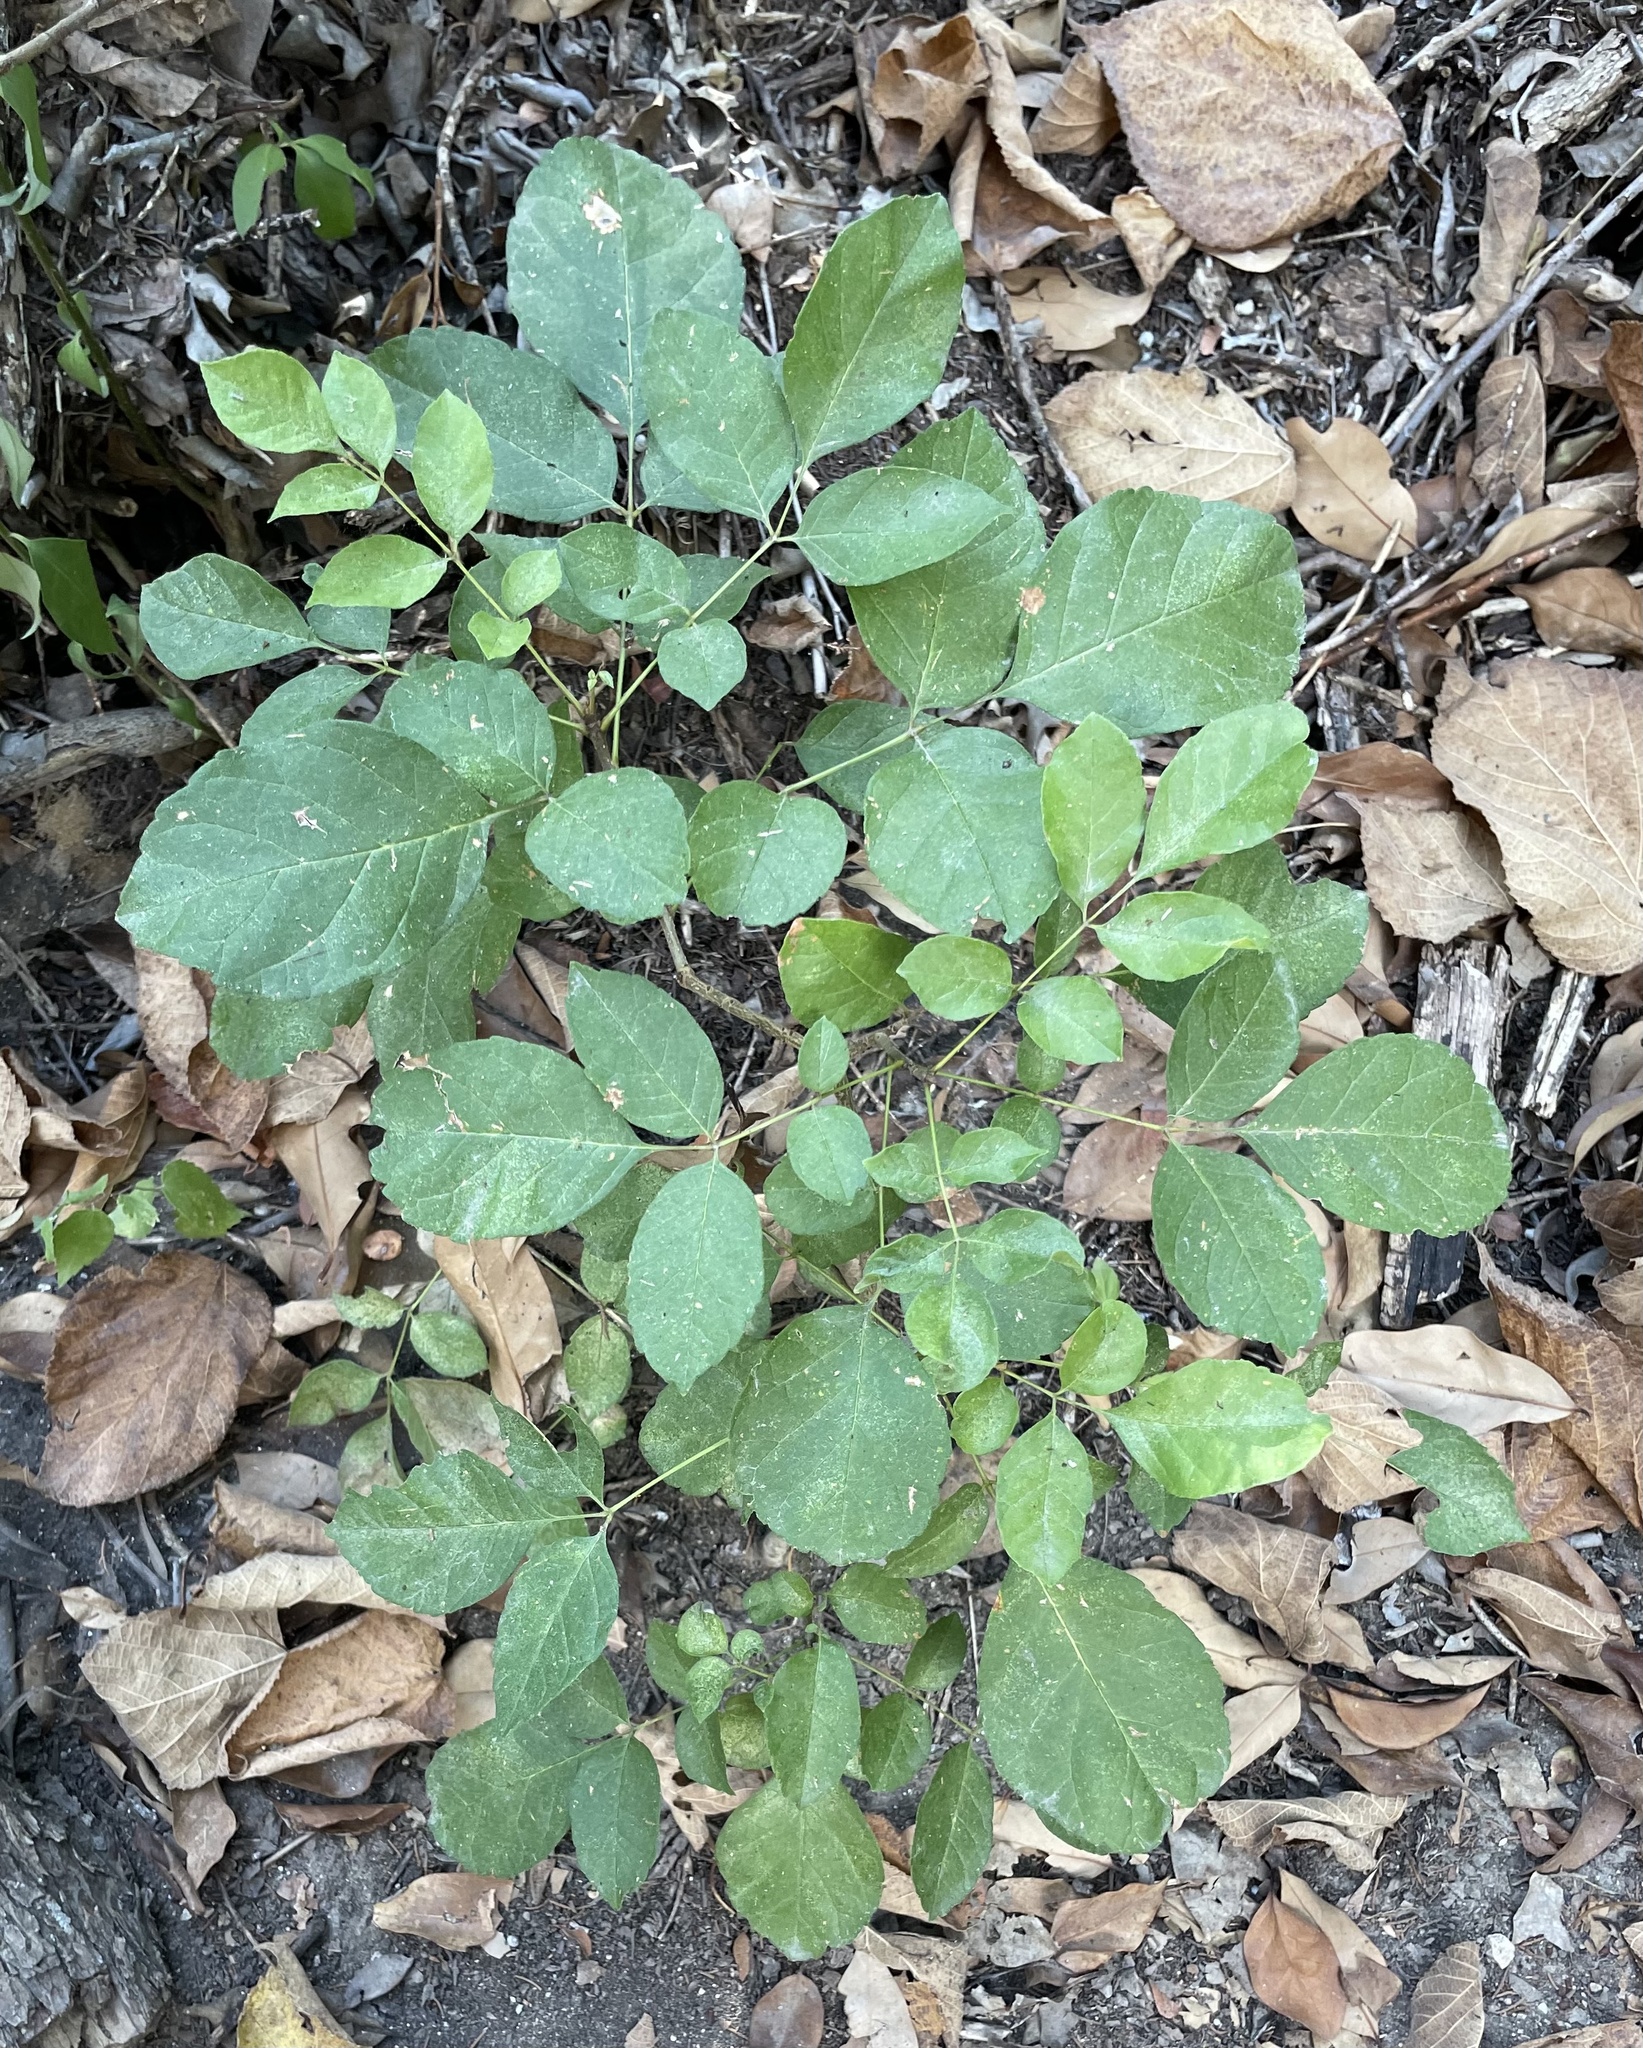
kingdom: Plantae
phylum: Tracheophyta
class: Magnoliopsida
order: Lamiales
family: Oleaceae
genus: Fraxinus
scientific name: Fraxinus albicans
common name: Texas ash
